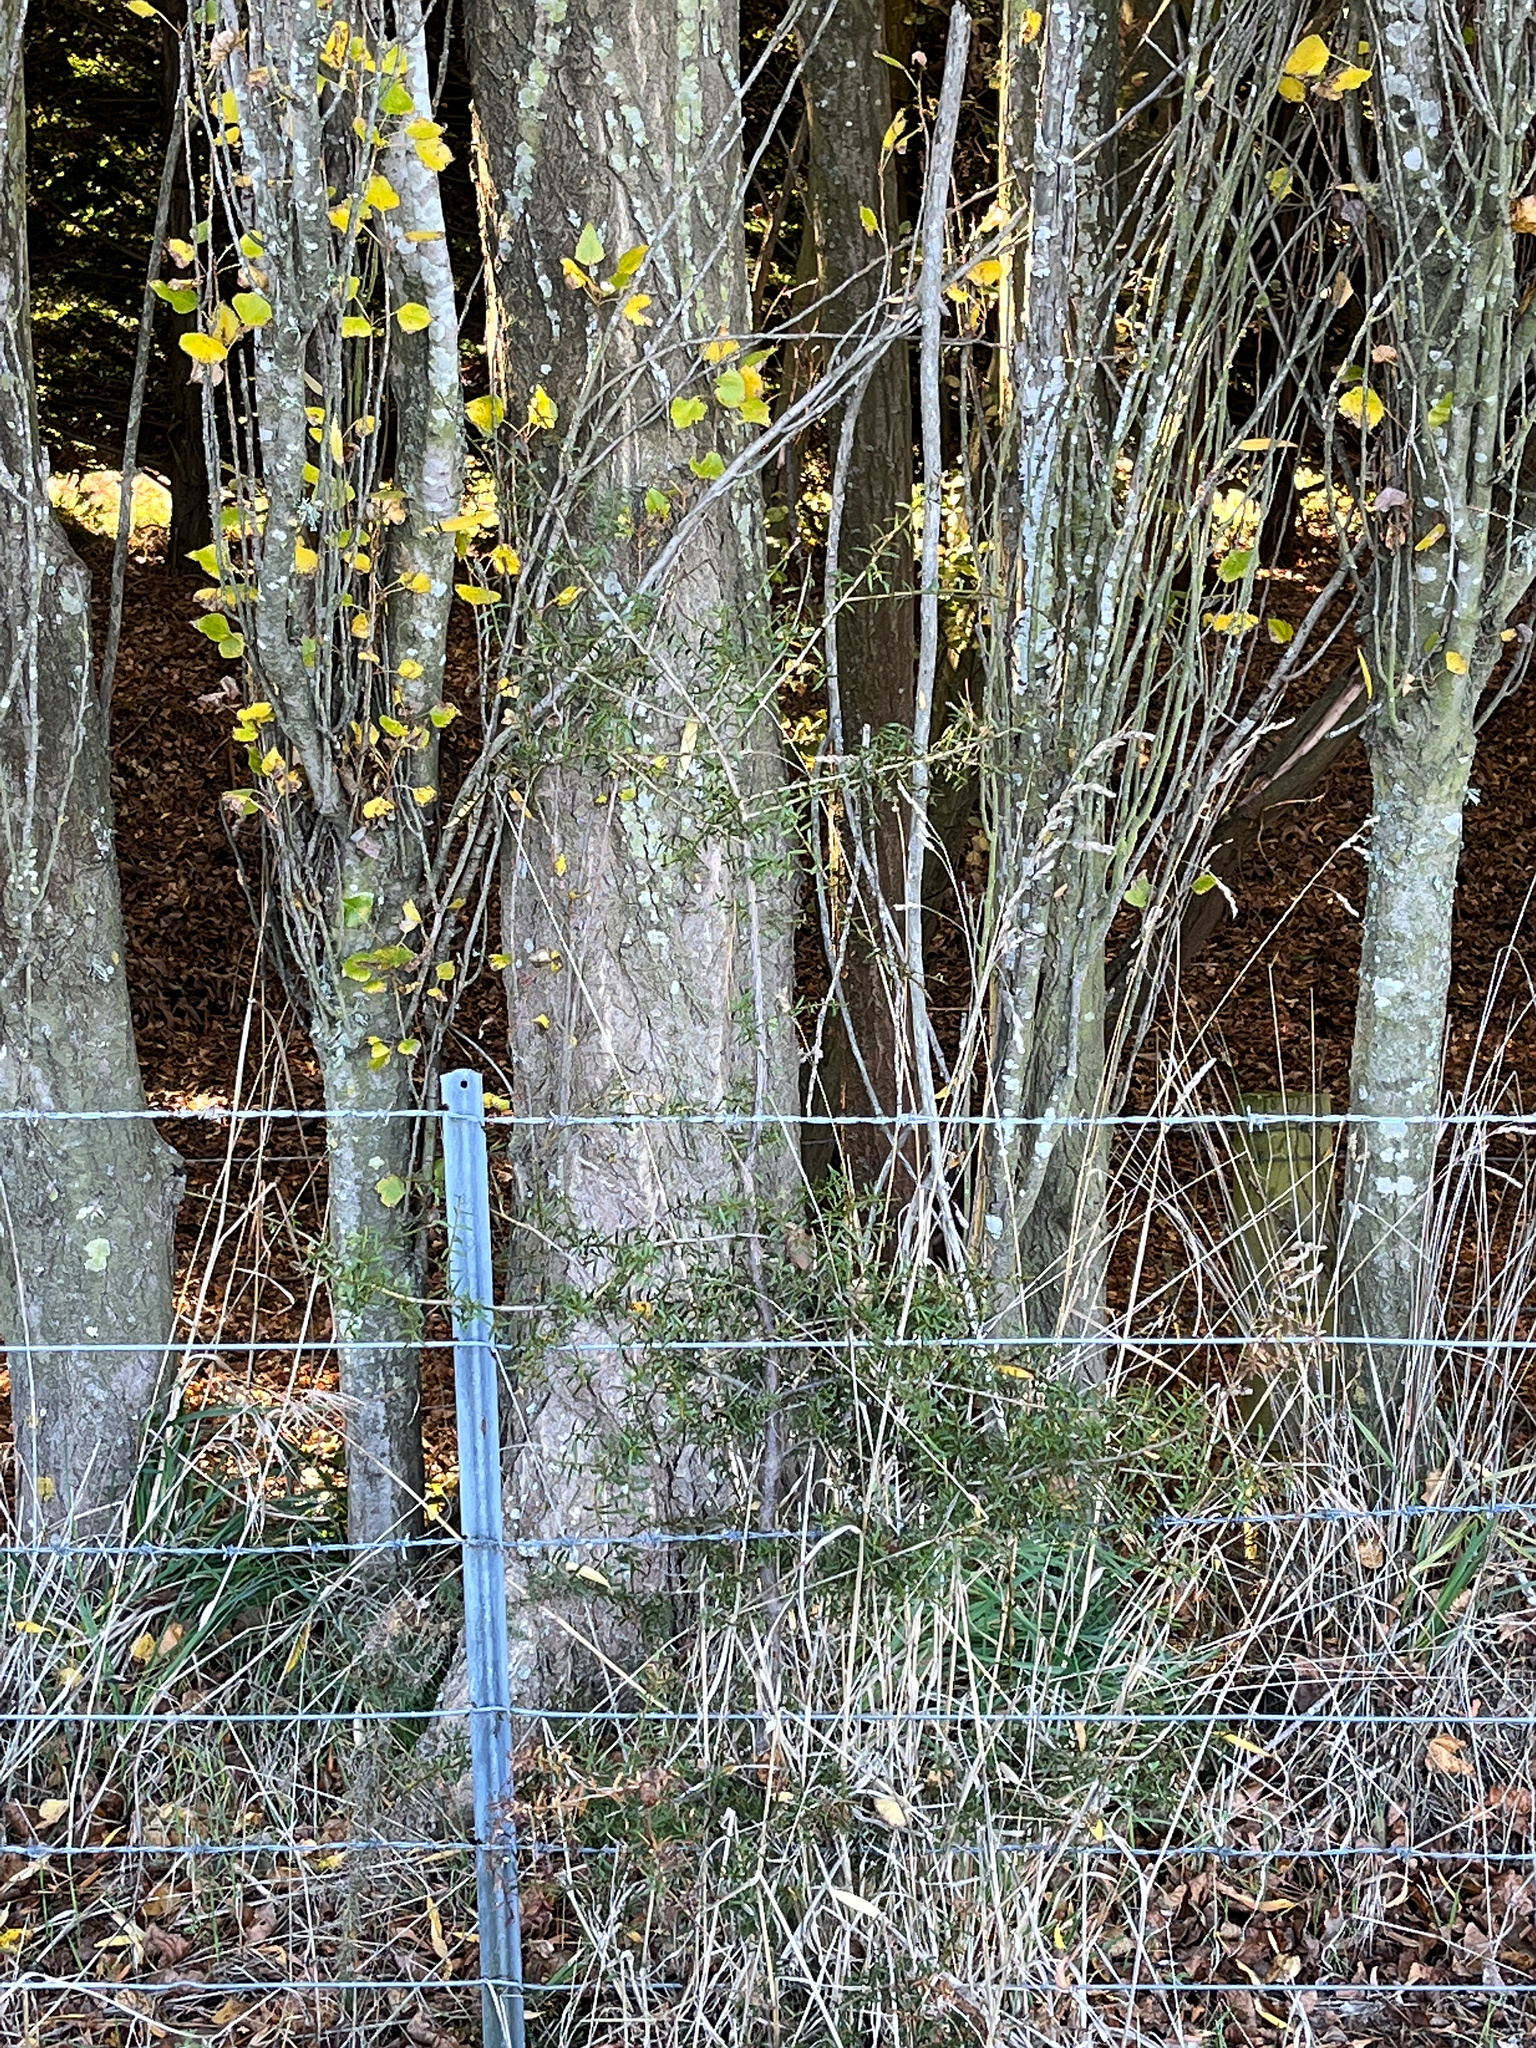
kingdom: Plantae
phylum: Tracheophyta
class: Pinopsida
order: Pinales
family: Podocarpaceae
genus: Podocarpus
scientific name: Podocarpus totara
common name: Totara
